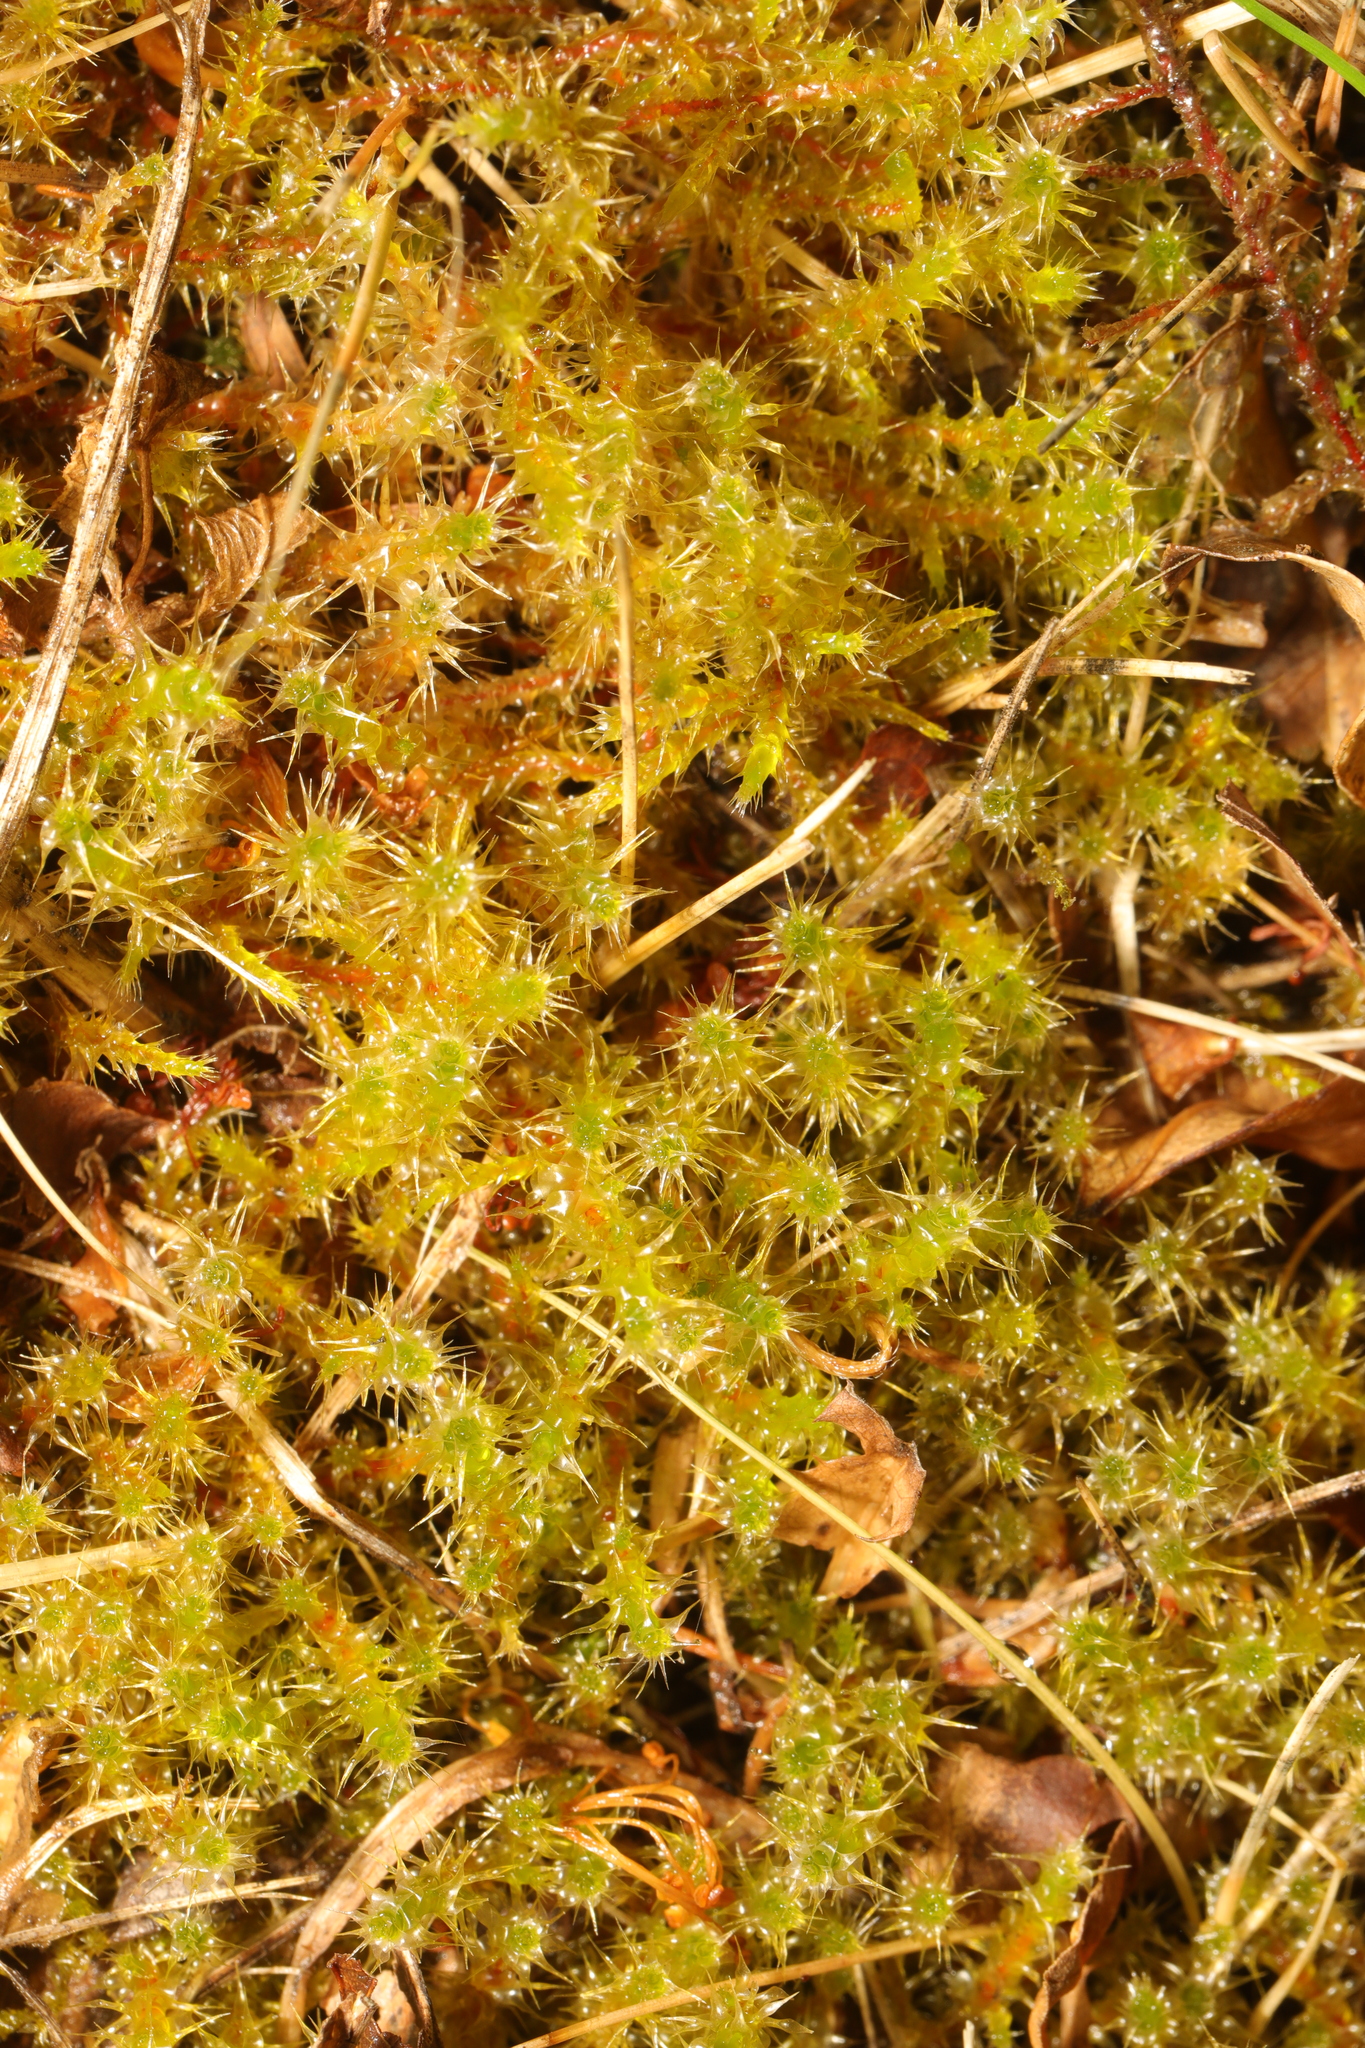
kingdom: Plantae
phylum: Bryophyta
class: Bryopsida
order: Hypnales
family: Hylocomiaceae
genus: Rhytidiadelphus
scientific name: Rhytidiadelphus squarrosus
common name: Springy turf-moss
